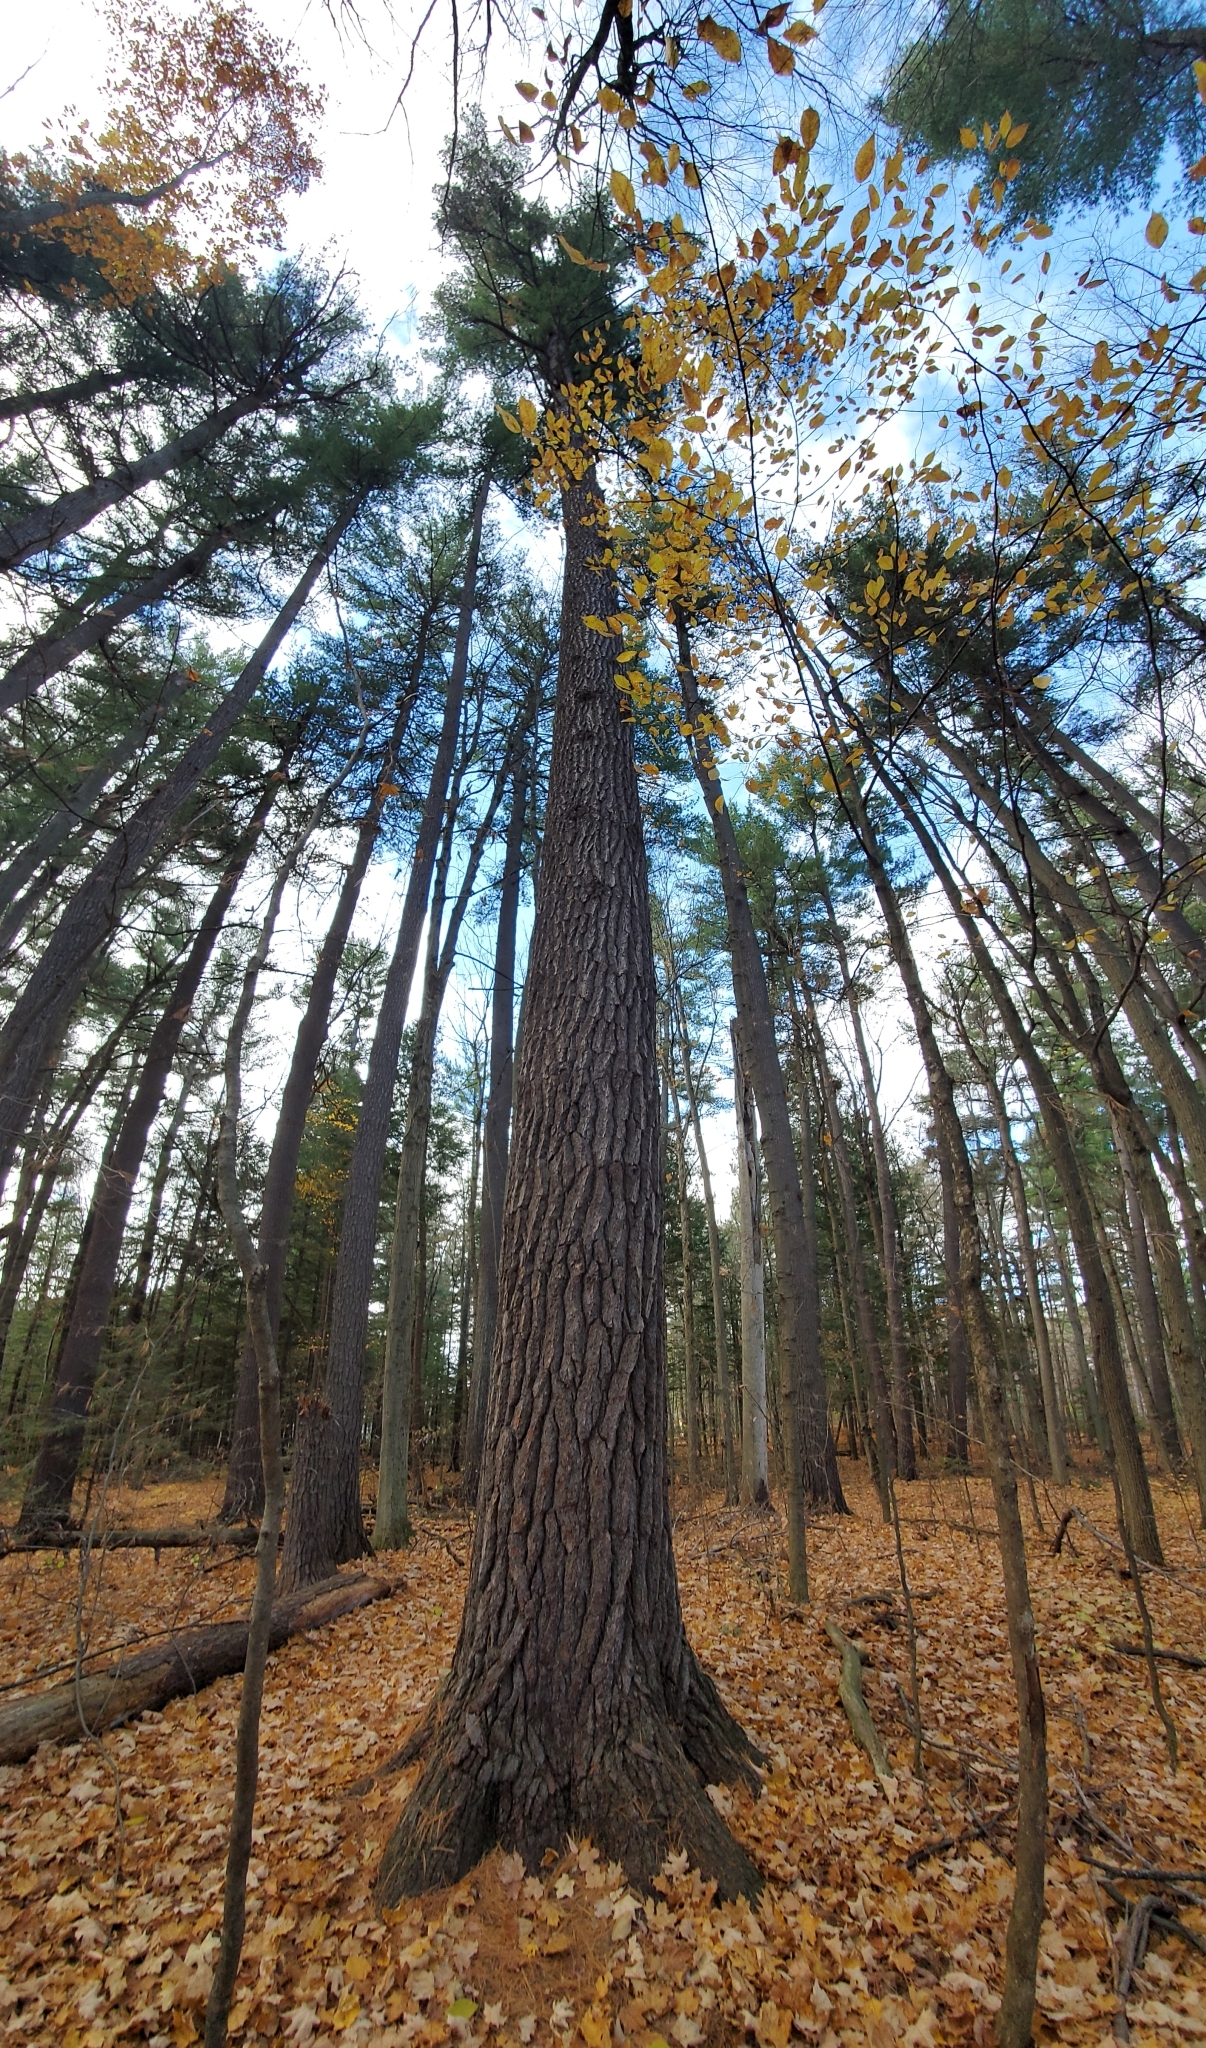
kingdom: Plantae
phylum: Tracheophyta
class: Pinopsida
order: Pinales
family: Pinaceae
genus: Pinus
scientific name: Pinus strobus
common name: Weymouth pine
